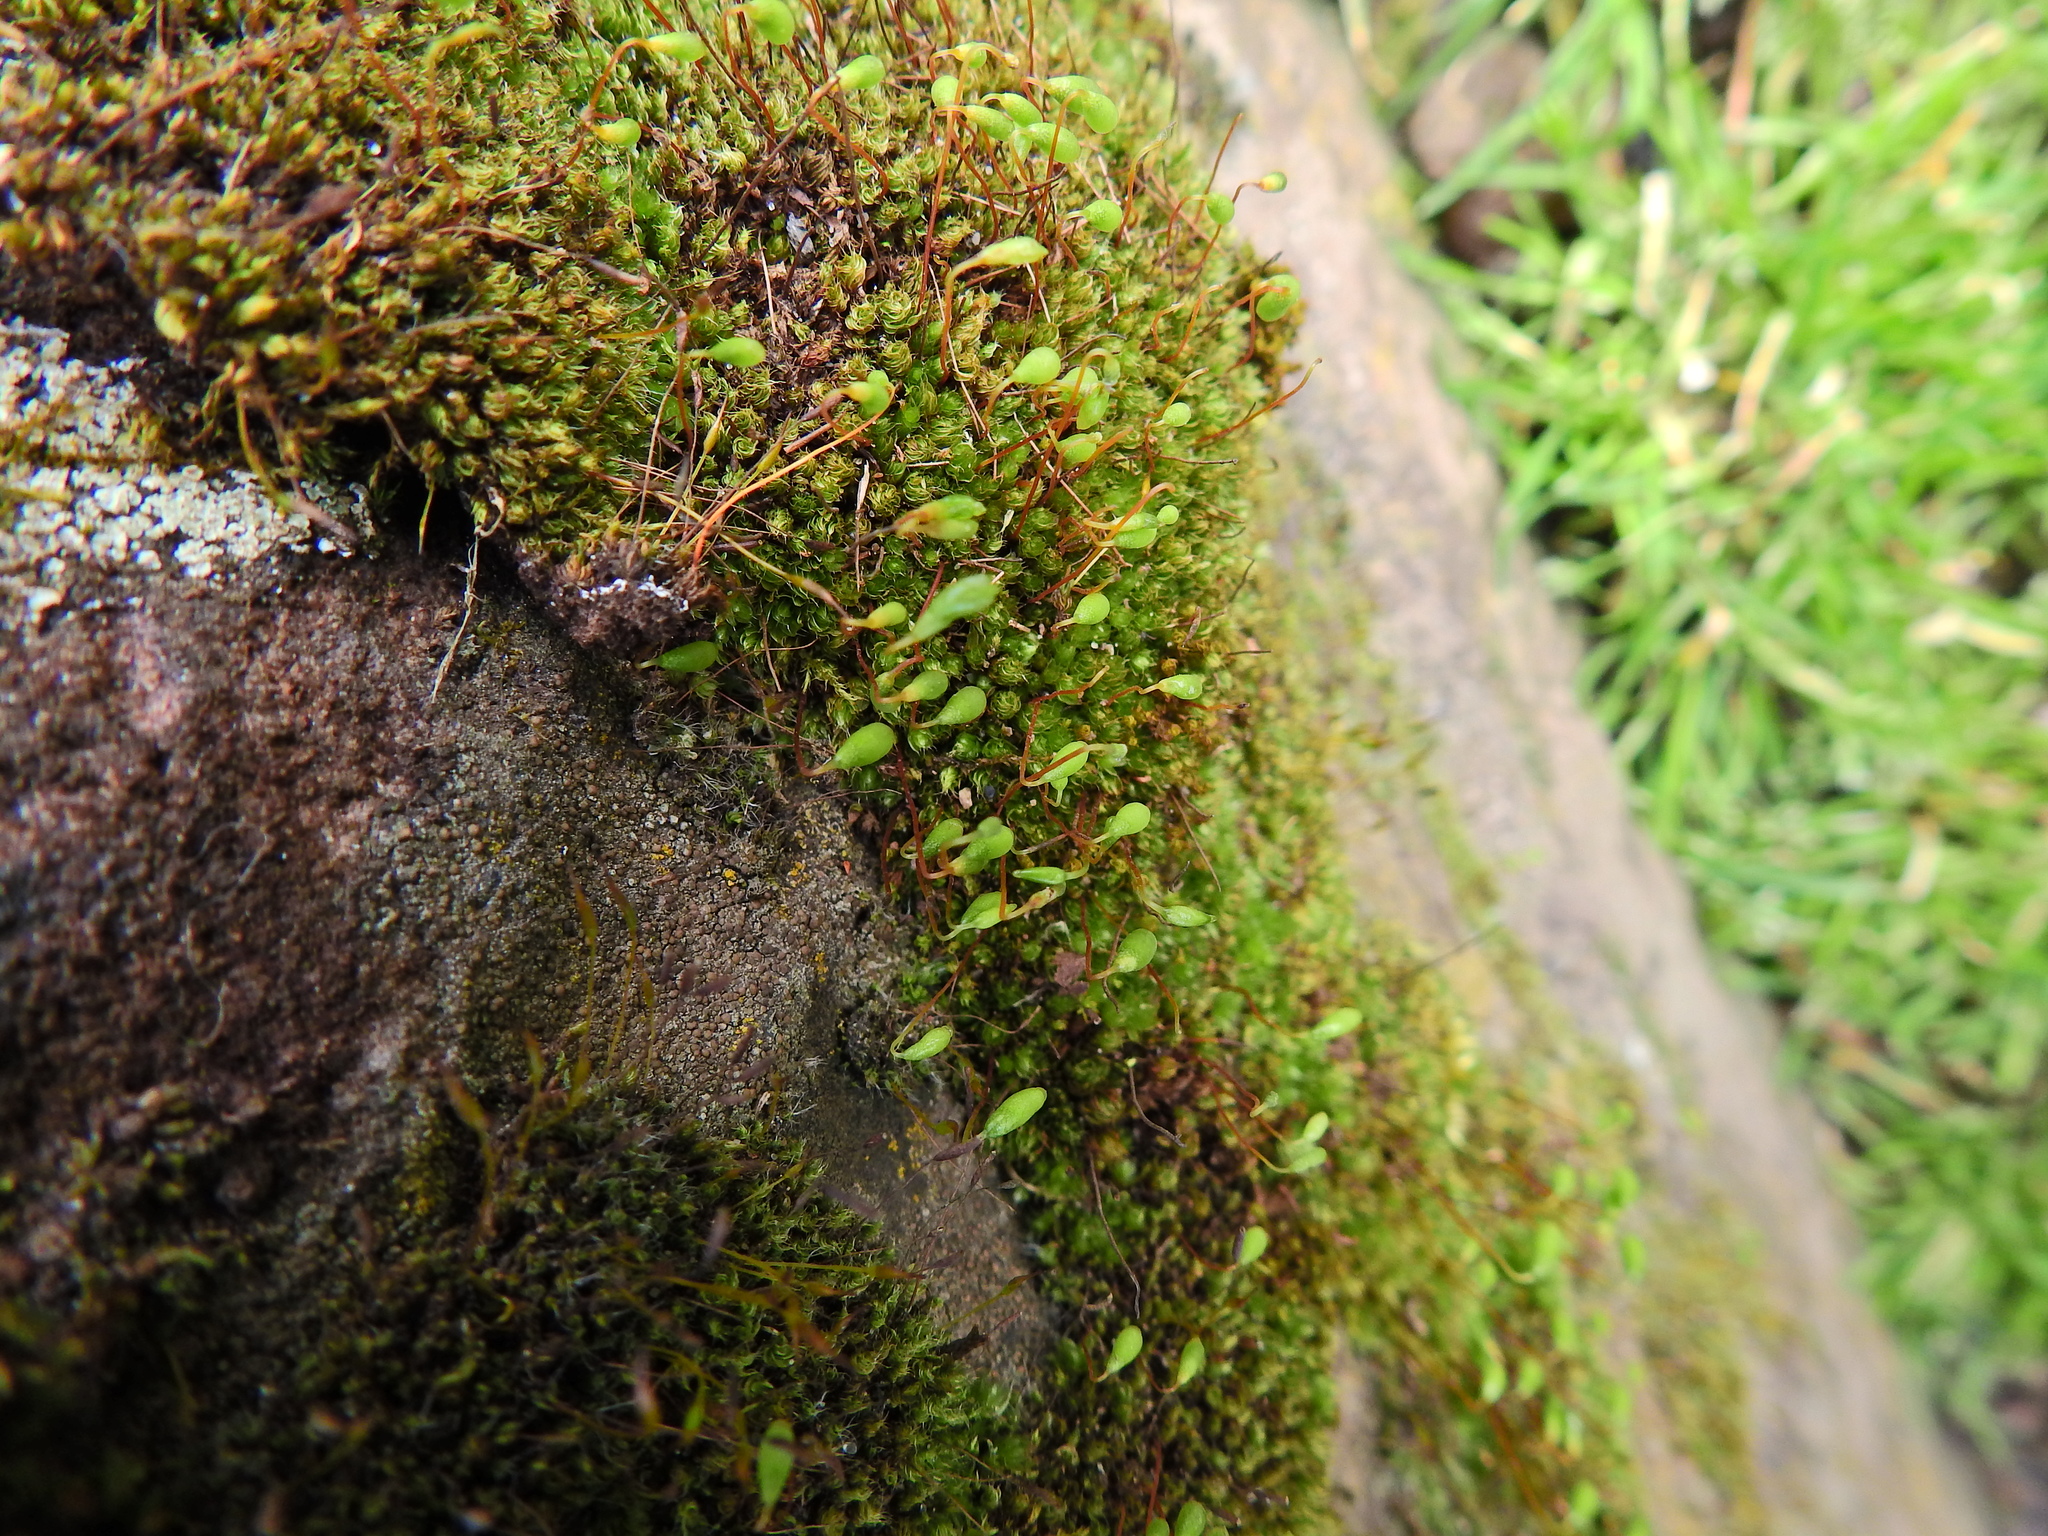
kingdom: Plantae
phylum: Bryophyta
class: Bryopsida
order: Bryales
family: Bryaceae
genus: Rosulabryum
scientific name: Rosulabryum capillare
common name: Capillary thread-moss
